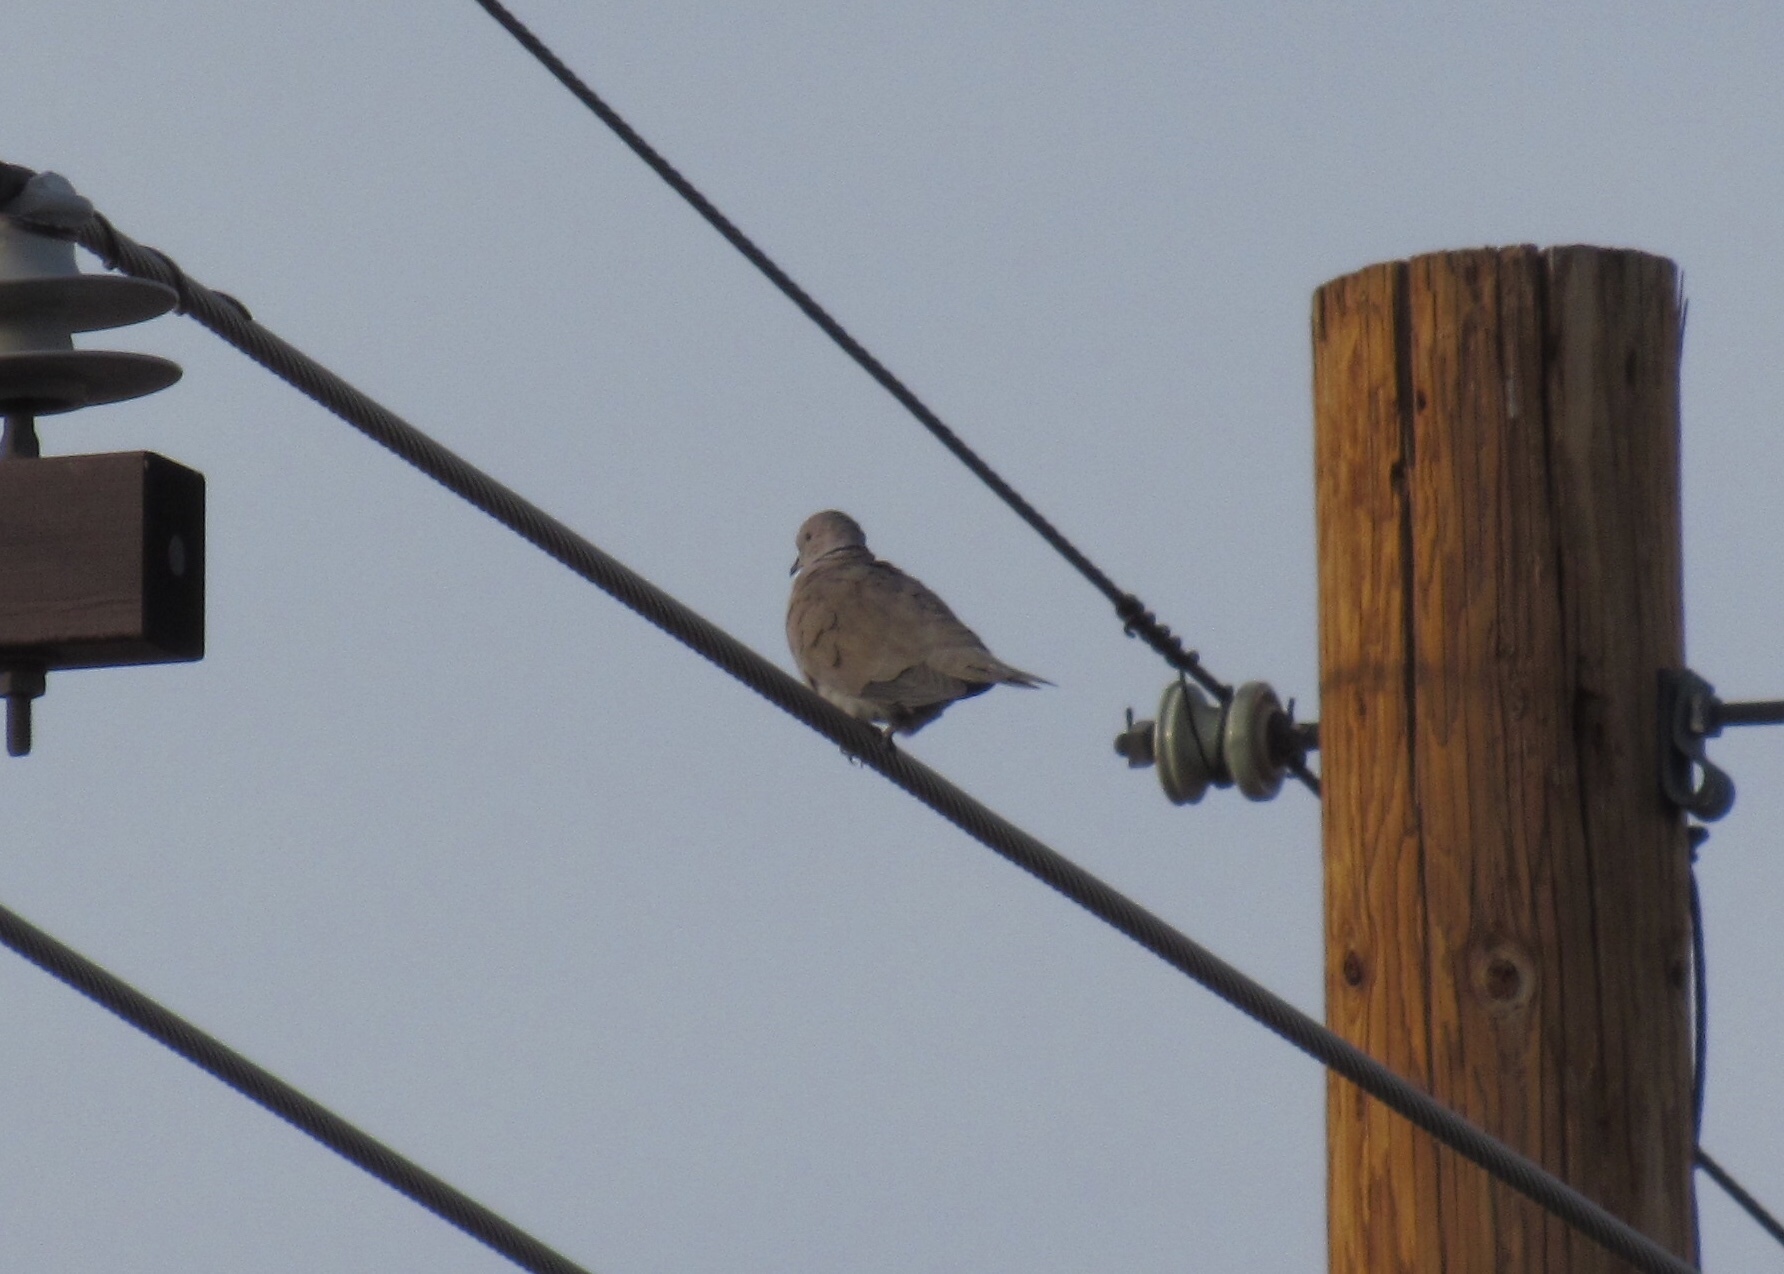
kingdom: Animalia
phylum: Chordata
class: Aves
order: Columbiformes
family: Columbidae
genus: Streptopelia
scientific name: Streptopelia decaocto
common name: Eurasian collared dove
